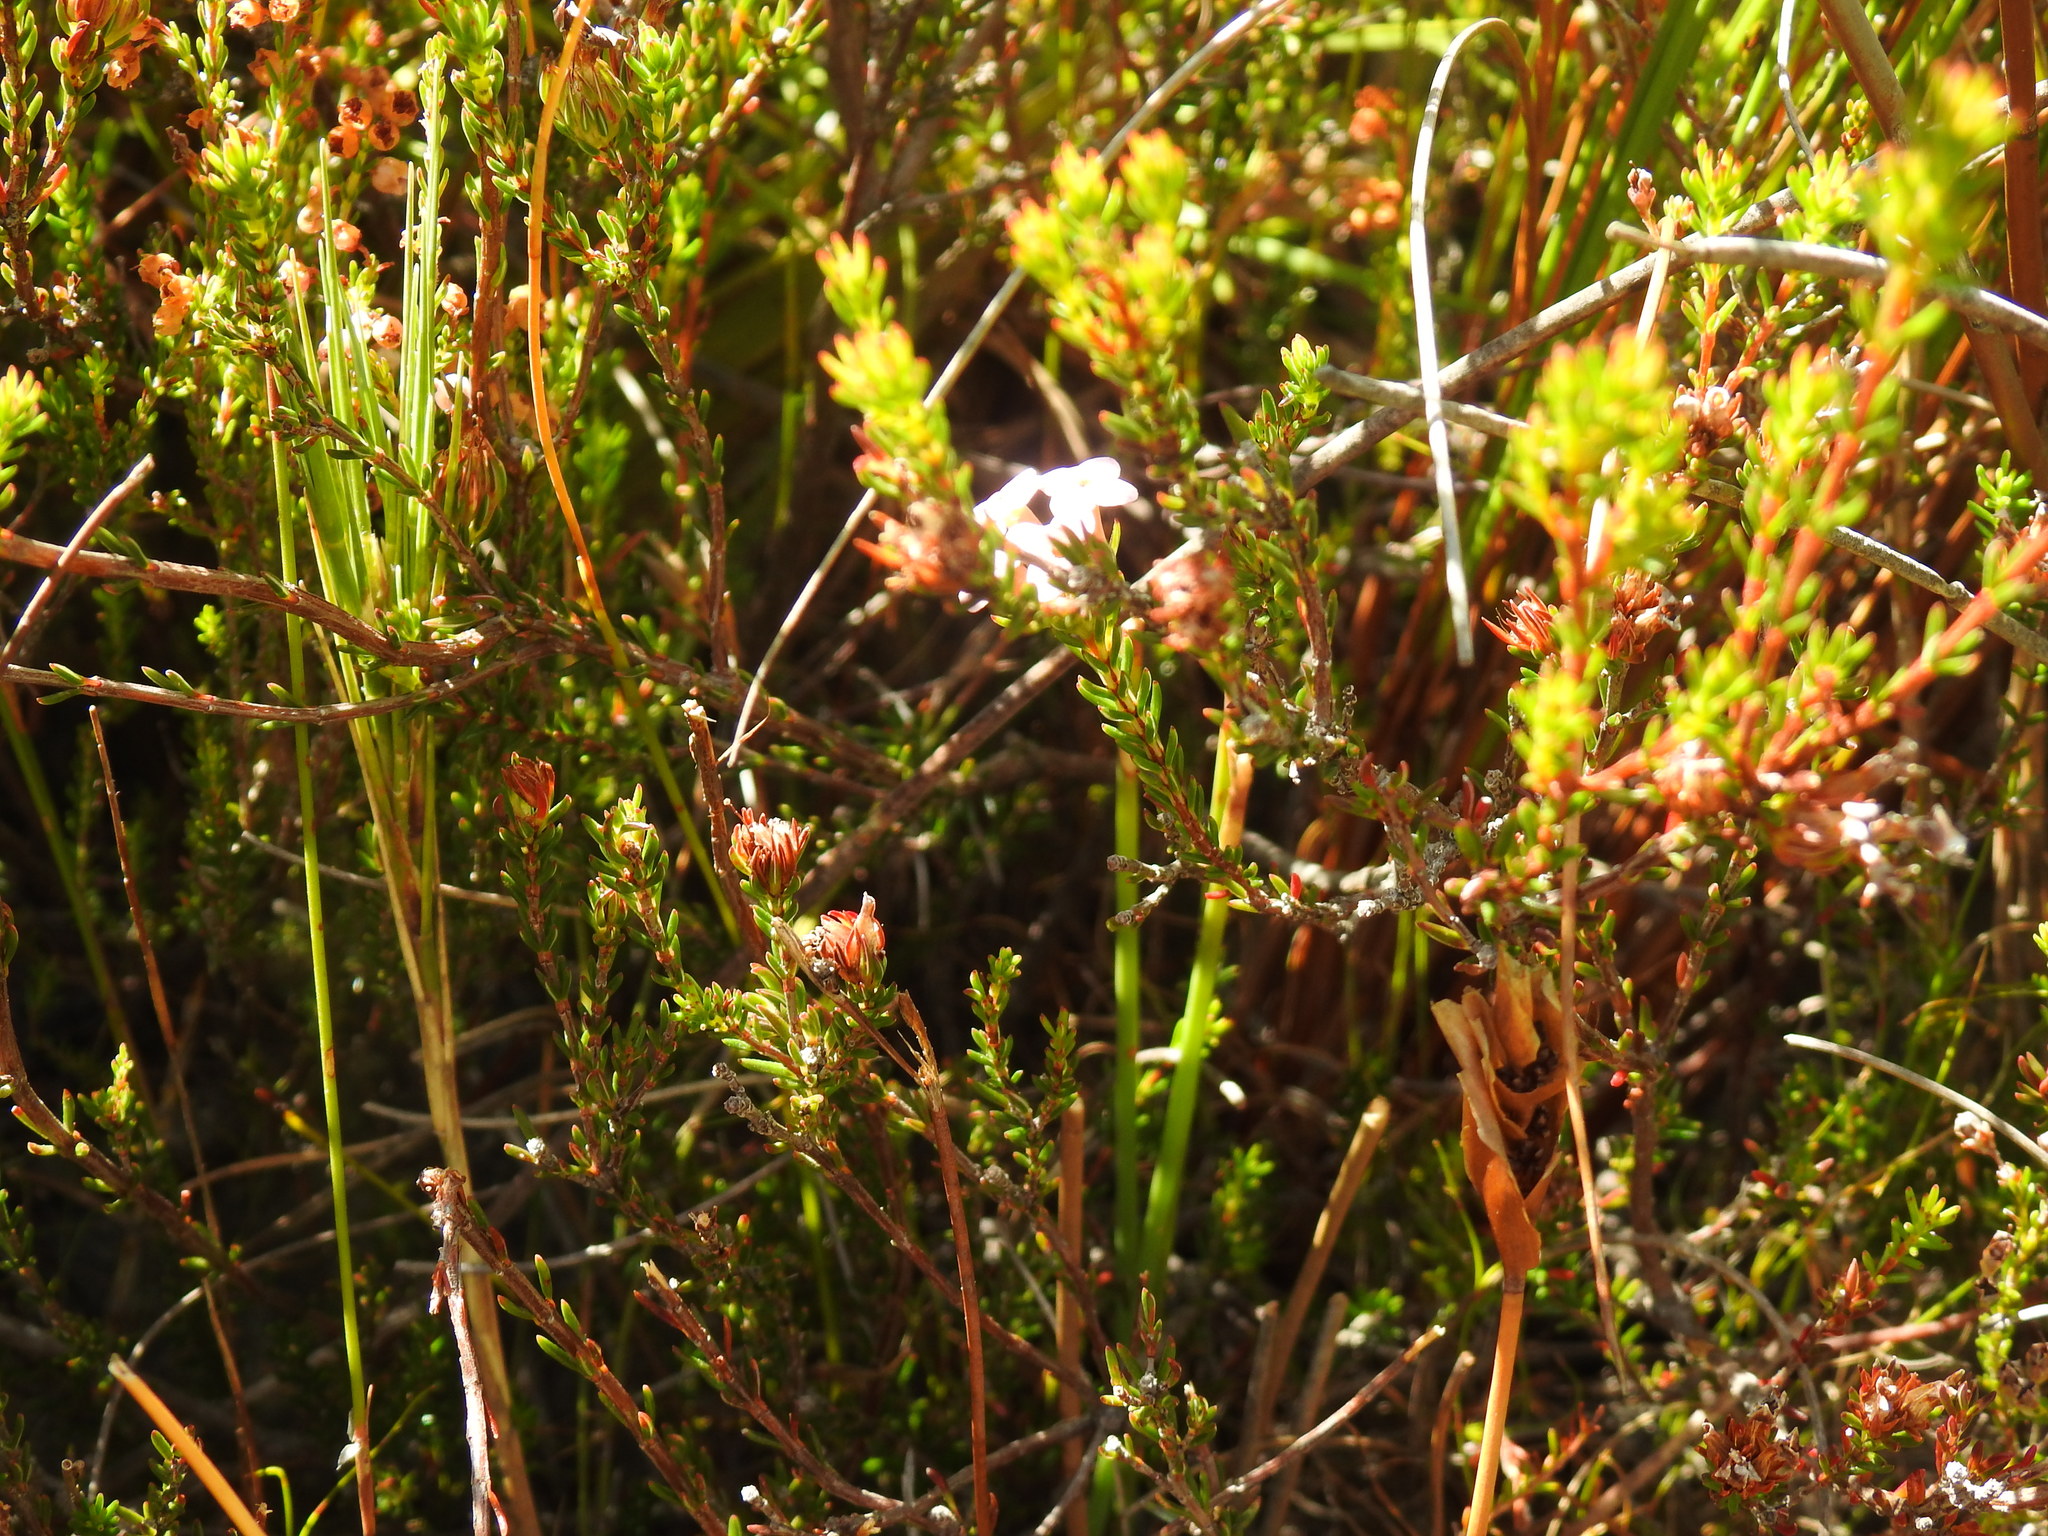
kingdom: Plantae
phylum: Tracheophyta
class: Magnoliopsida
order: Ericales
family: Ericaceae
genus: Erica
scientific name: Erica fastigiata
